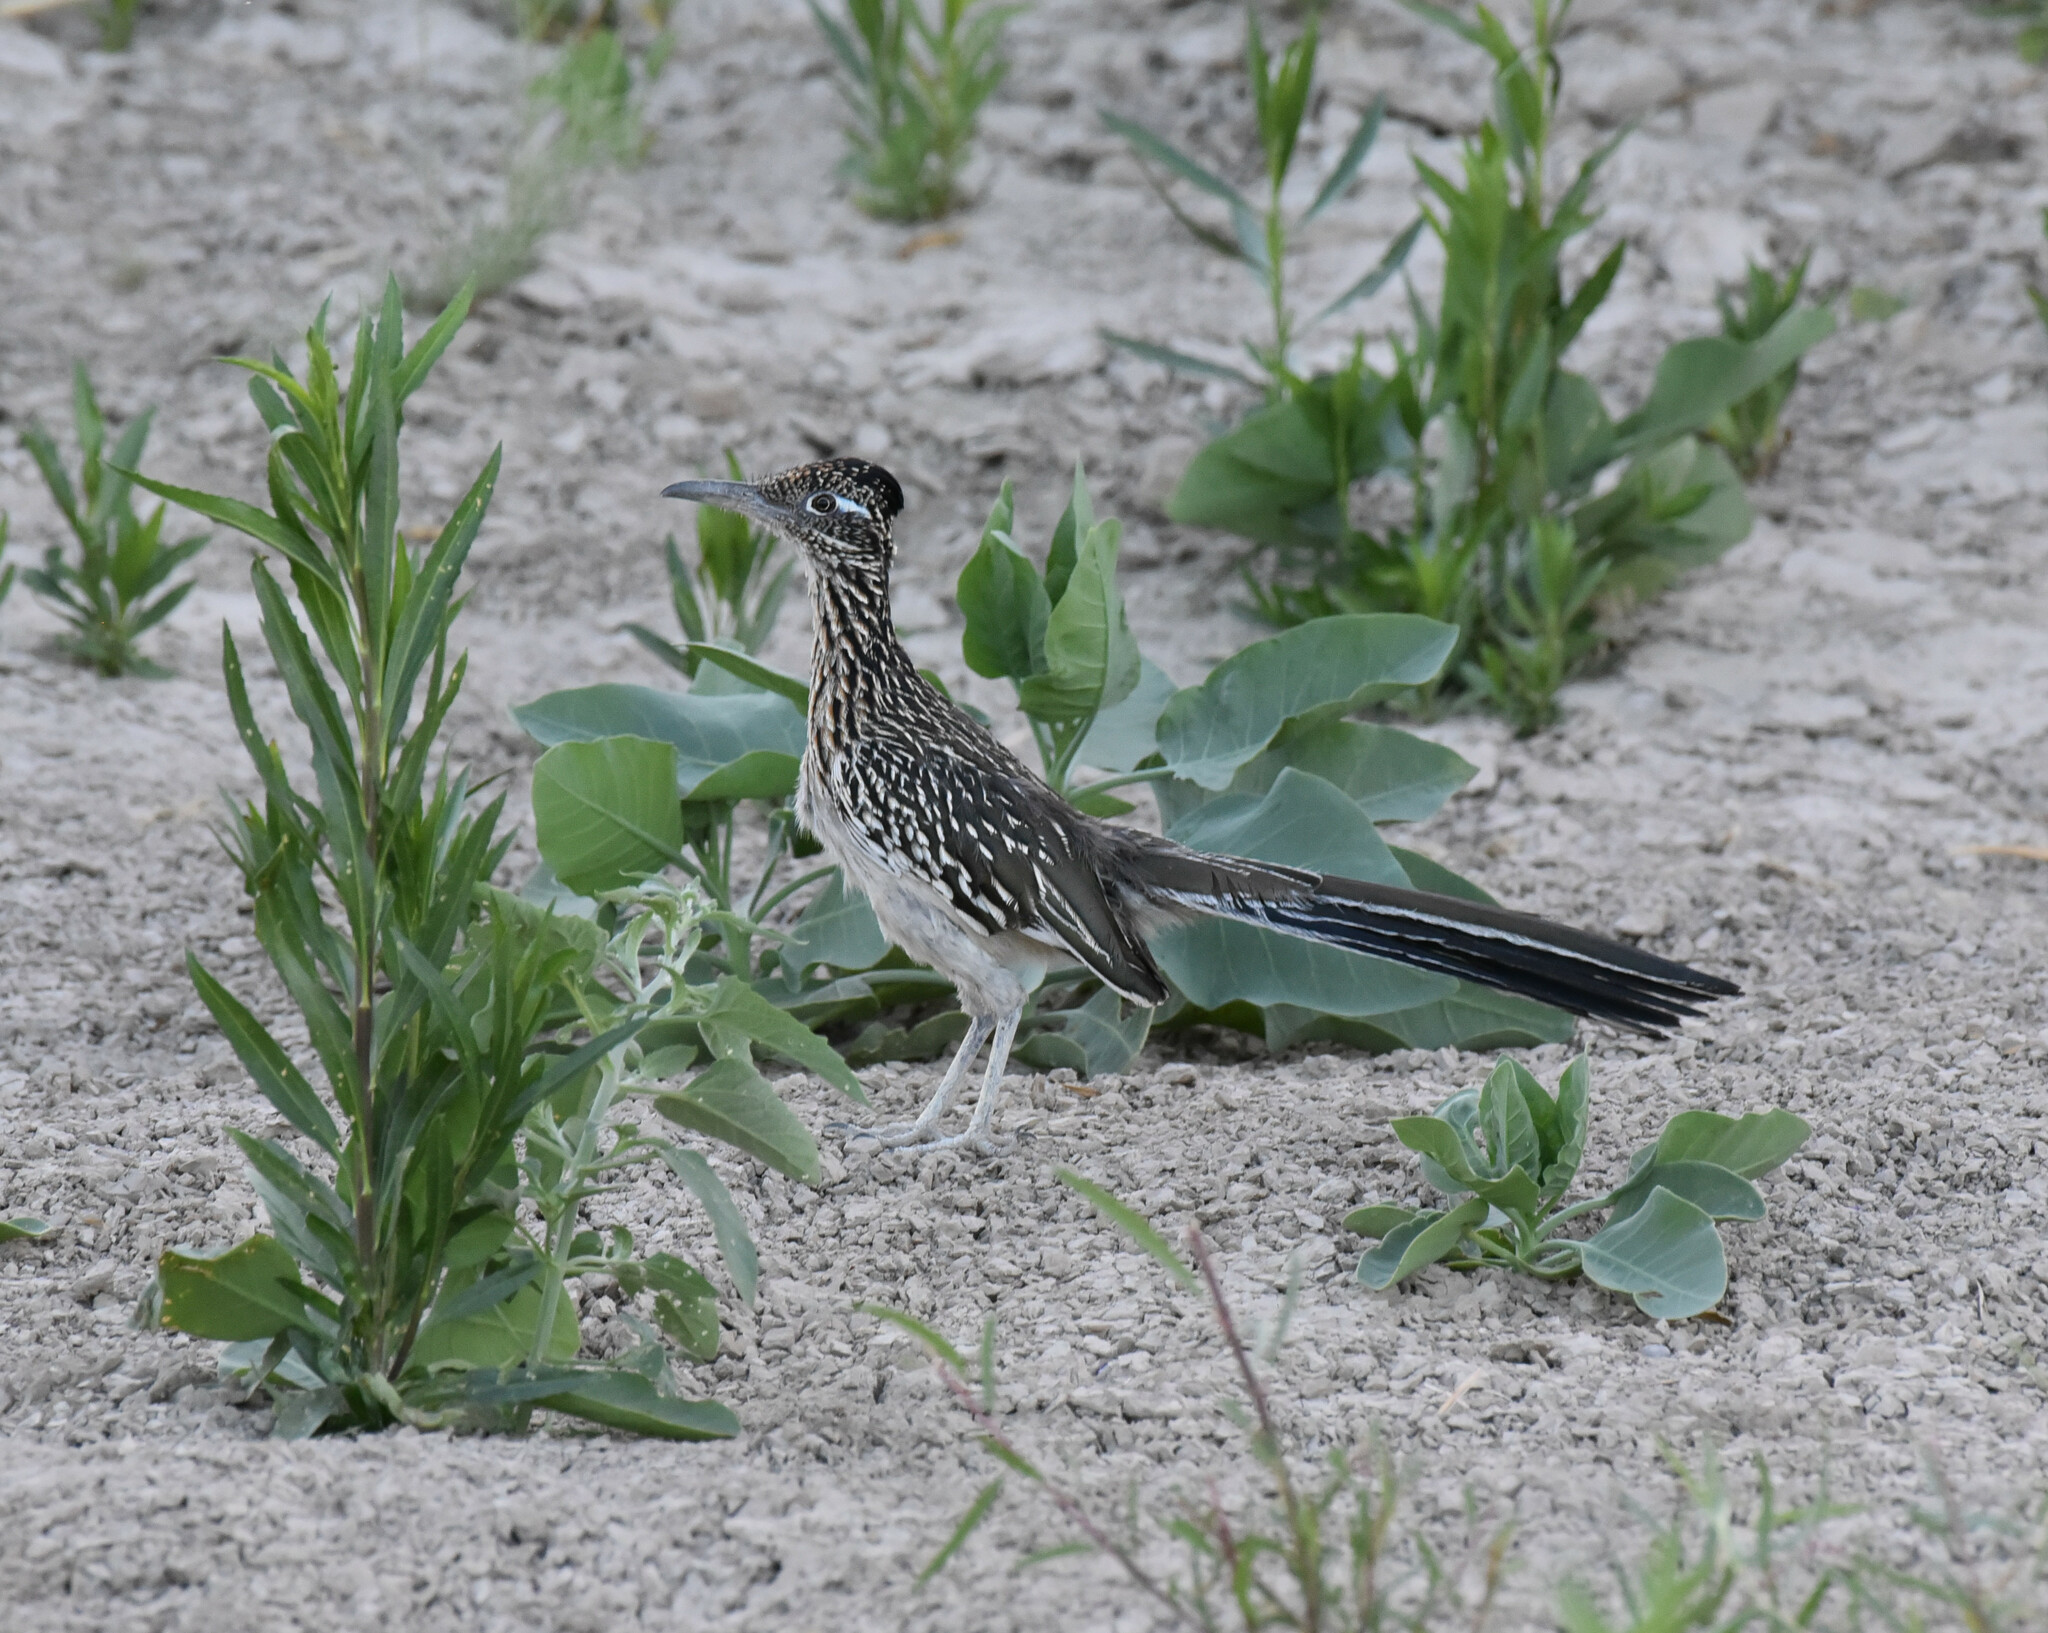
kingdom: Animalia
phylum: Chordata
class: Aves
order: Cuculiformes
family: Cuculidae
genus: Geococcyx
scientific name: Geococcyx californianus
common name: Greater roadrunner
